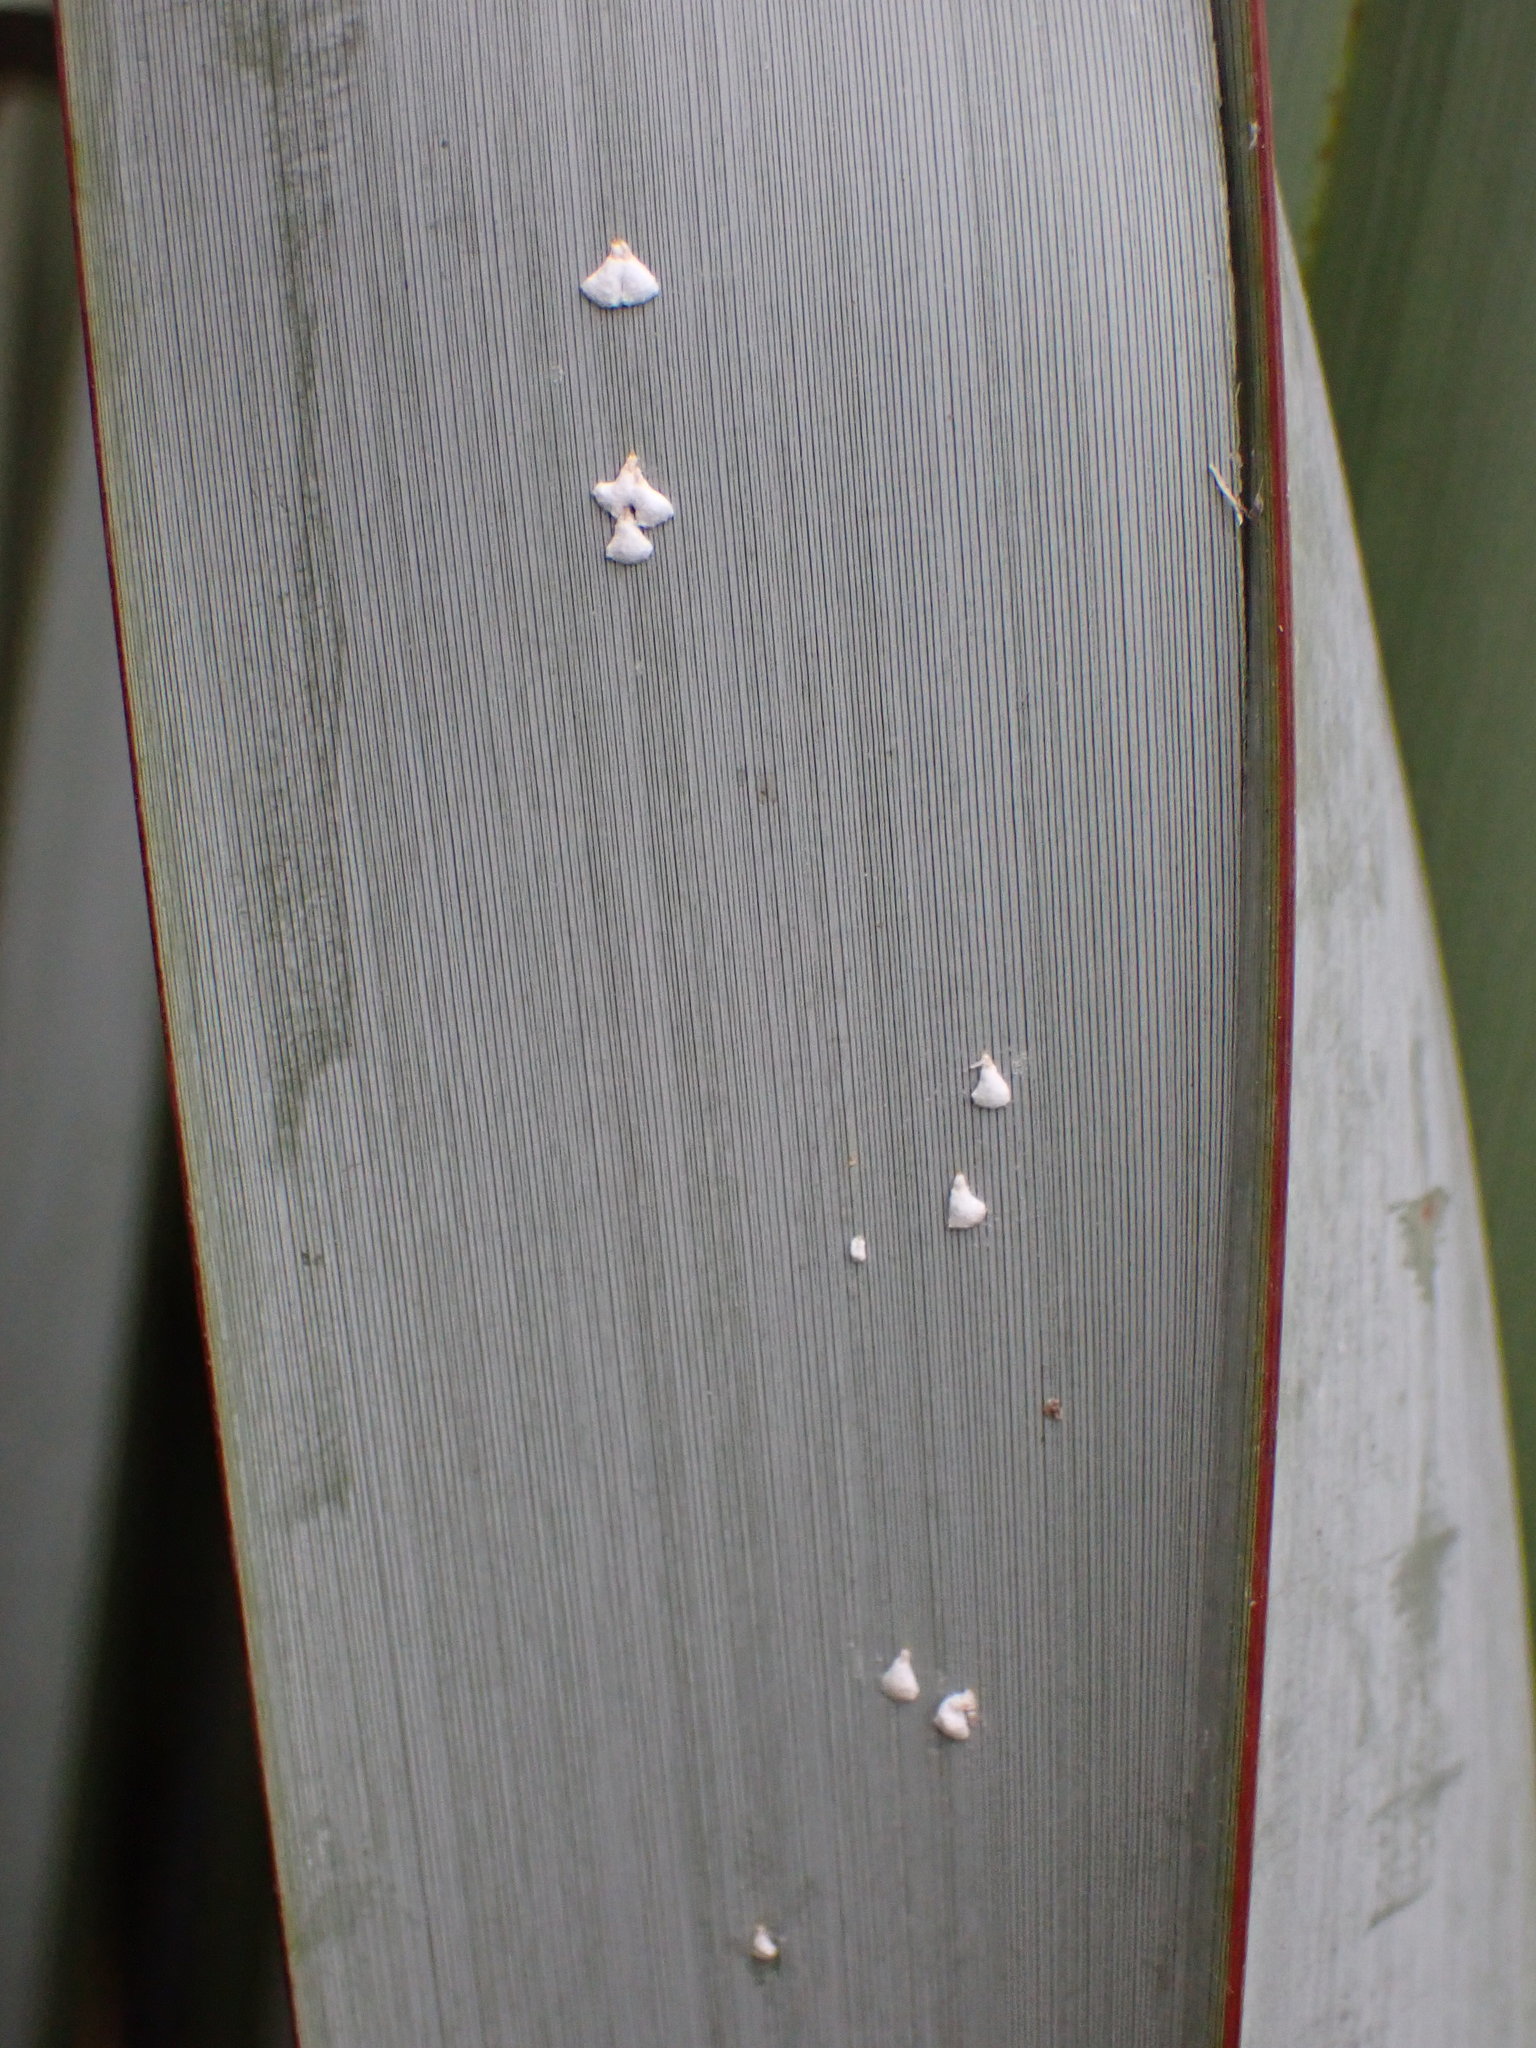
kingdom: Animalia
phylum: Arthropoda
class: Insecta
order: Hemiptera
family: Diaspididae
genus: Poliaspis
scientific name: Poliaspis floccosa
